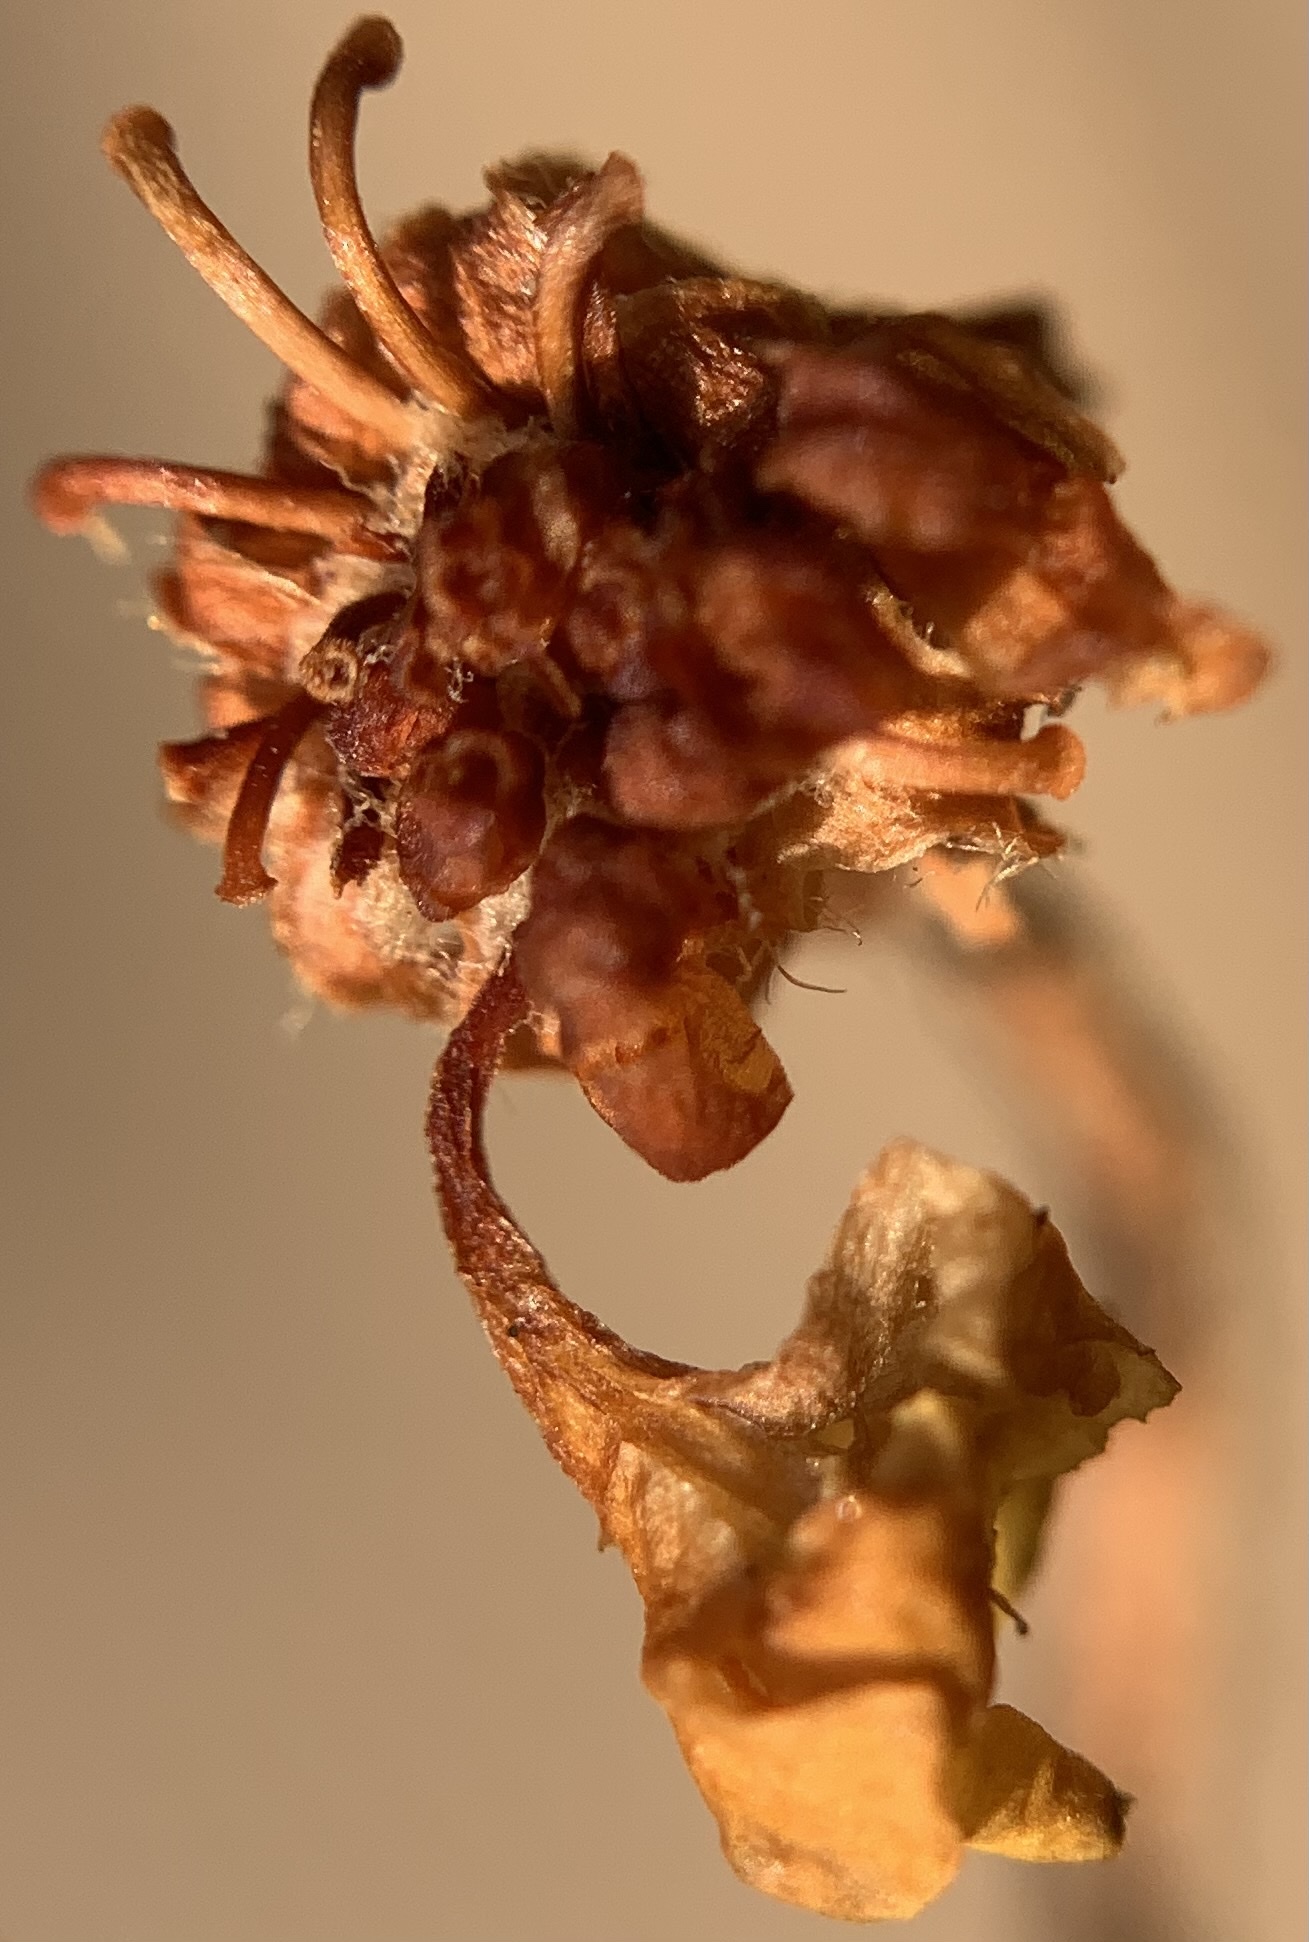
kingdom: Plantae
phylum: Tracheophyta
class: Magnoliopsida
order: Caryophyllales
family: Polygonaceae
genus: Eriogonum
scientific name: Eriogonum umbellatum
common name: Sulfur-buckwheat
